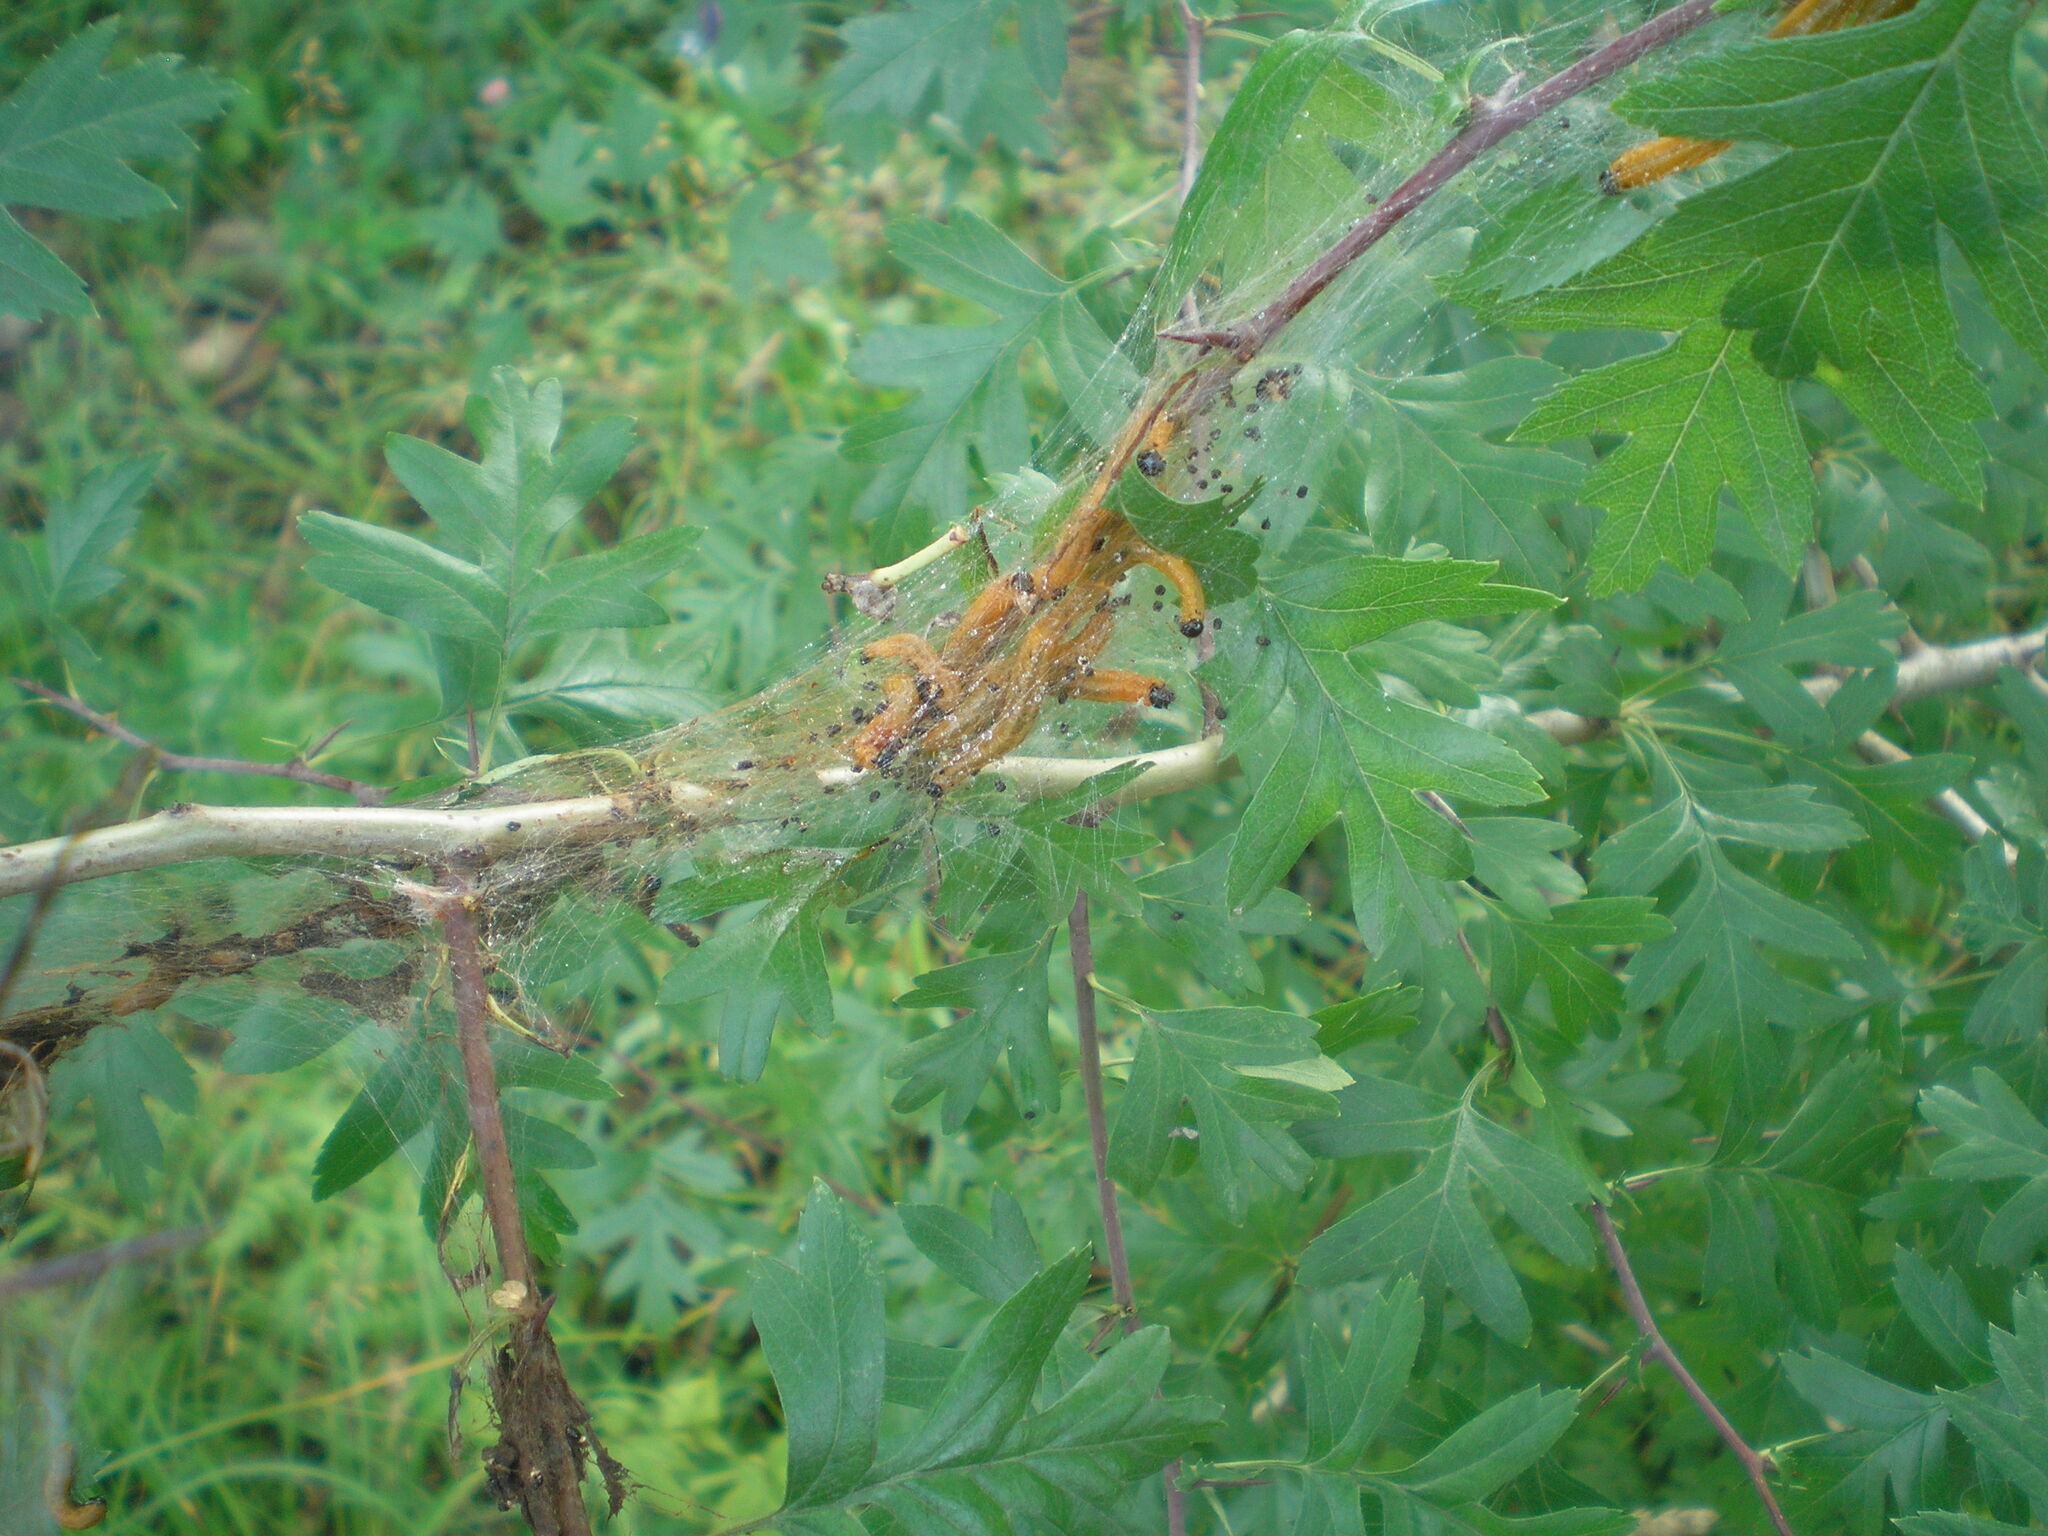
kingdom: Animalia
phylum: Arthropoda
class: Insecta
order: Hymenoptera
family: Pamphiliidae
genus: Neurotoma
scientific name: Neurotoma saltuum
